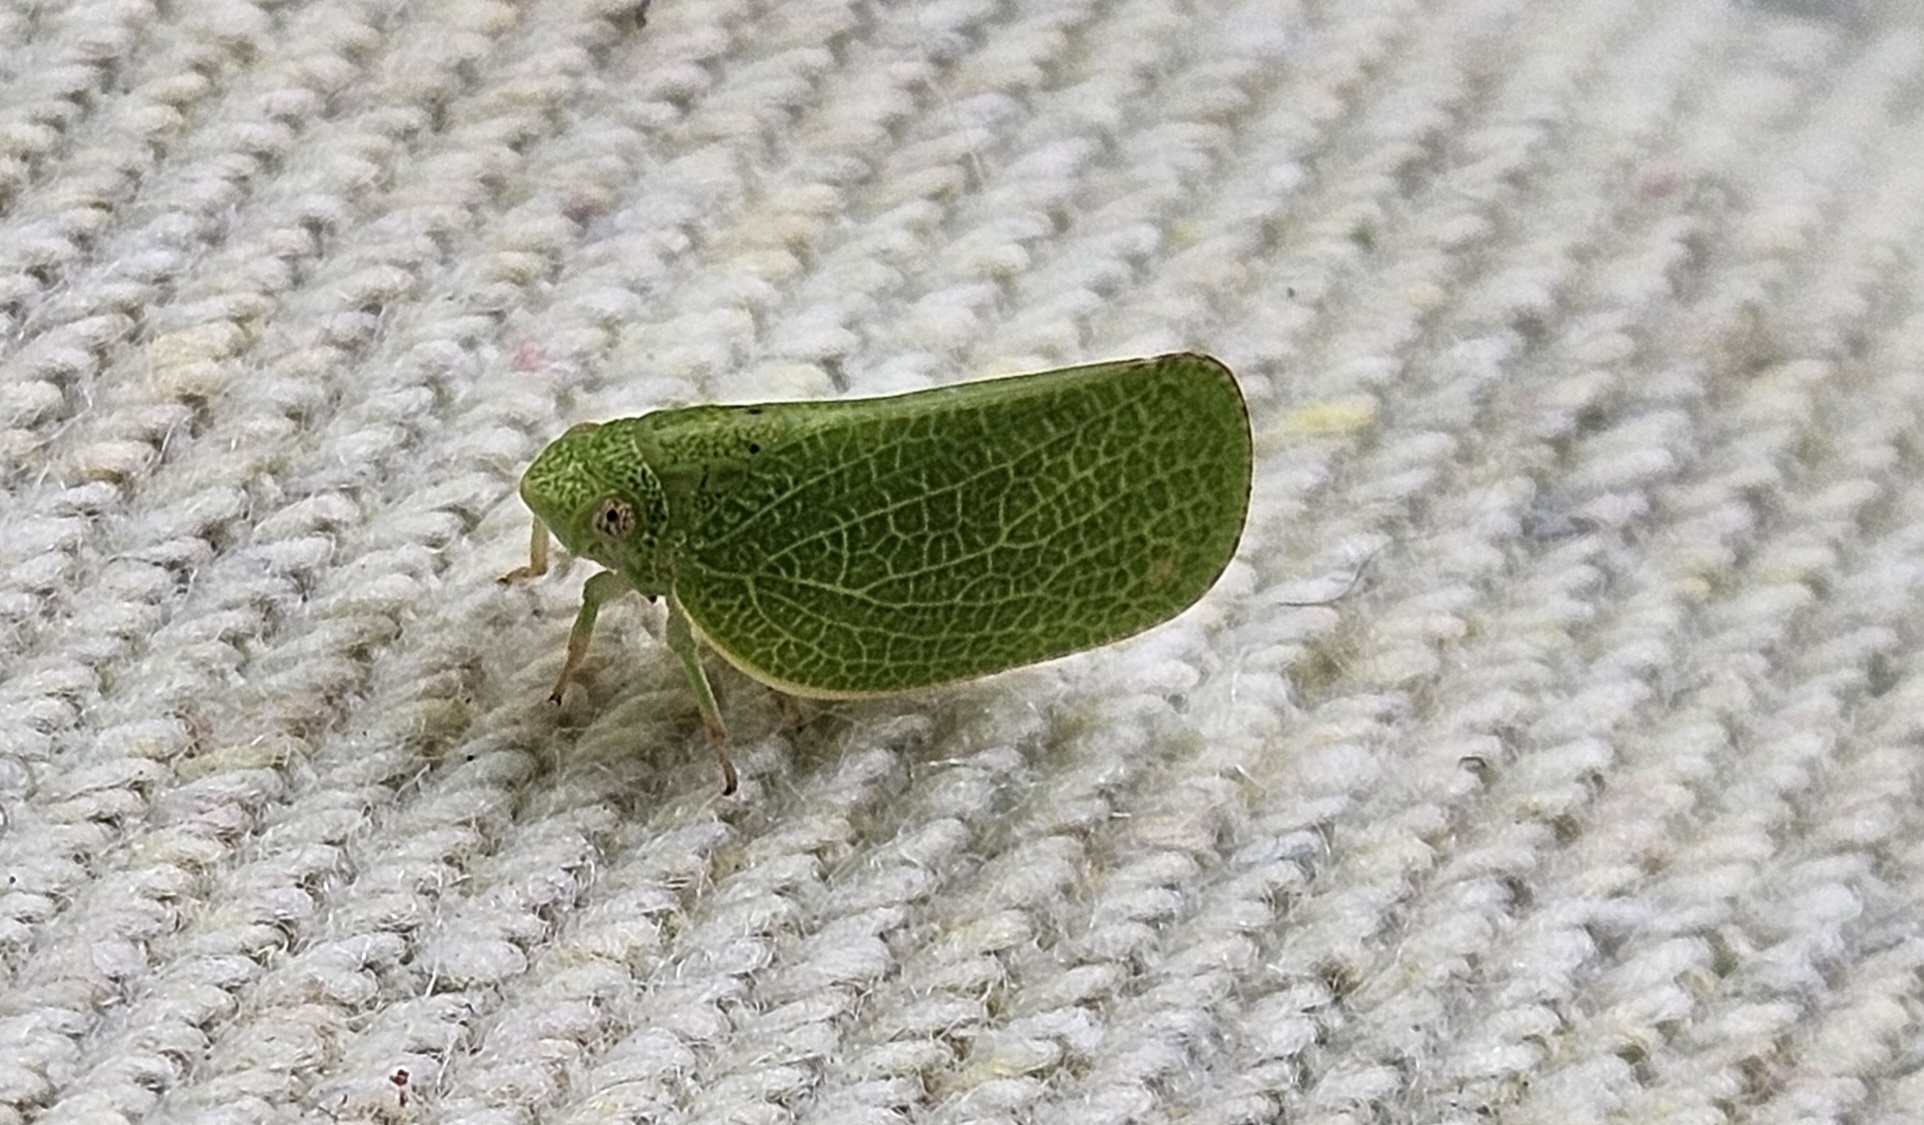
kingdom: Animalia
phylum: Arthropoda
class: Insecta
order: Hemiptera
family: Acanaloniidae
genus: Acanalonia
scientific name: Acanalonia conica
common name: Green cone-headed planthopper
